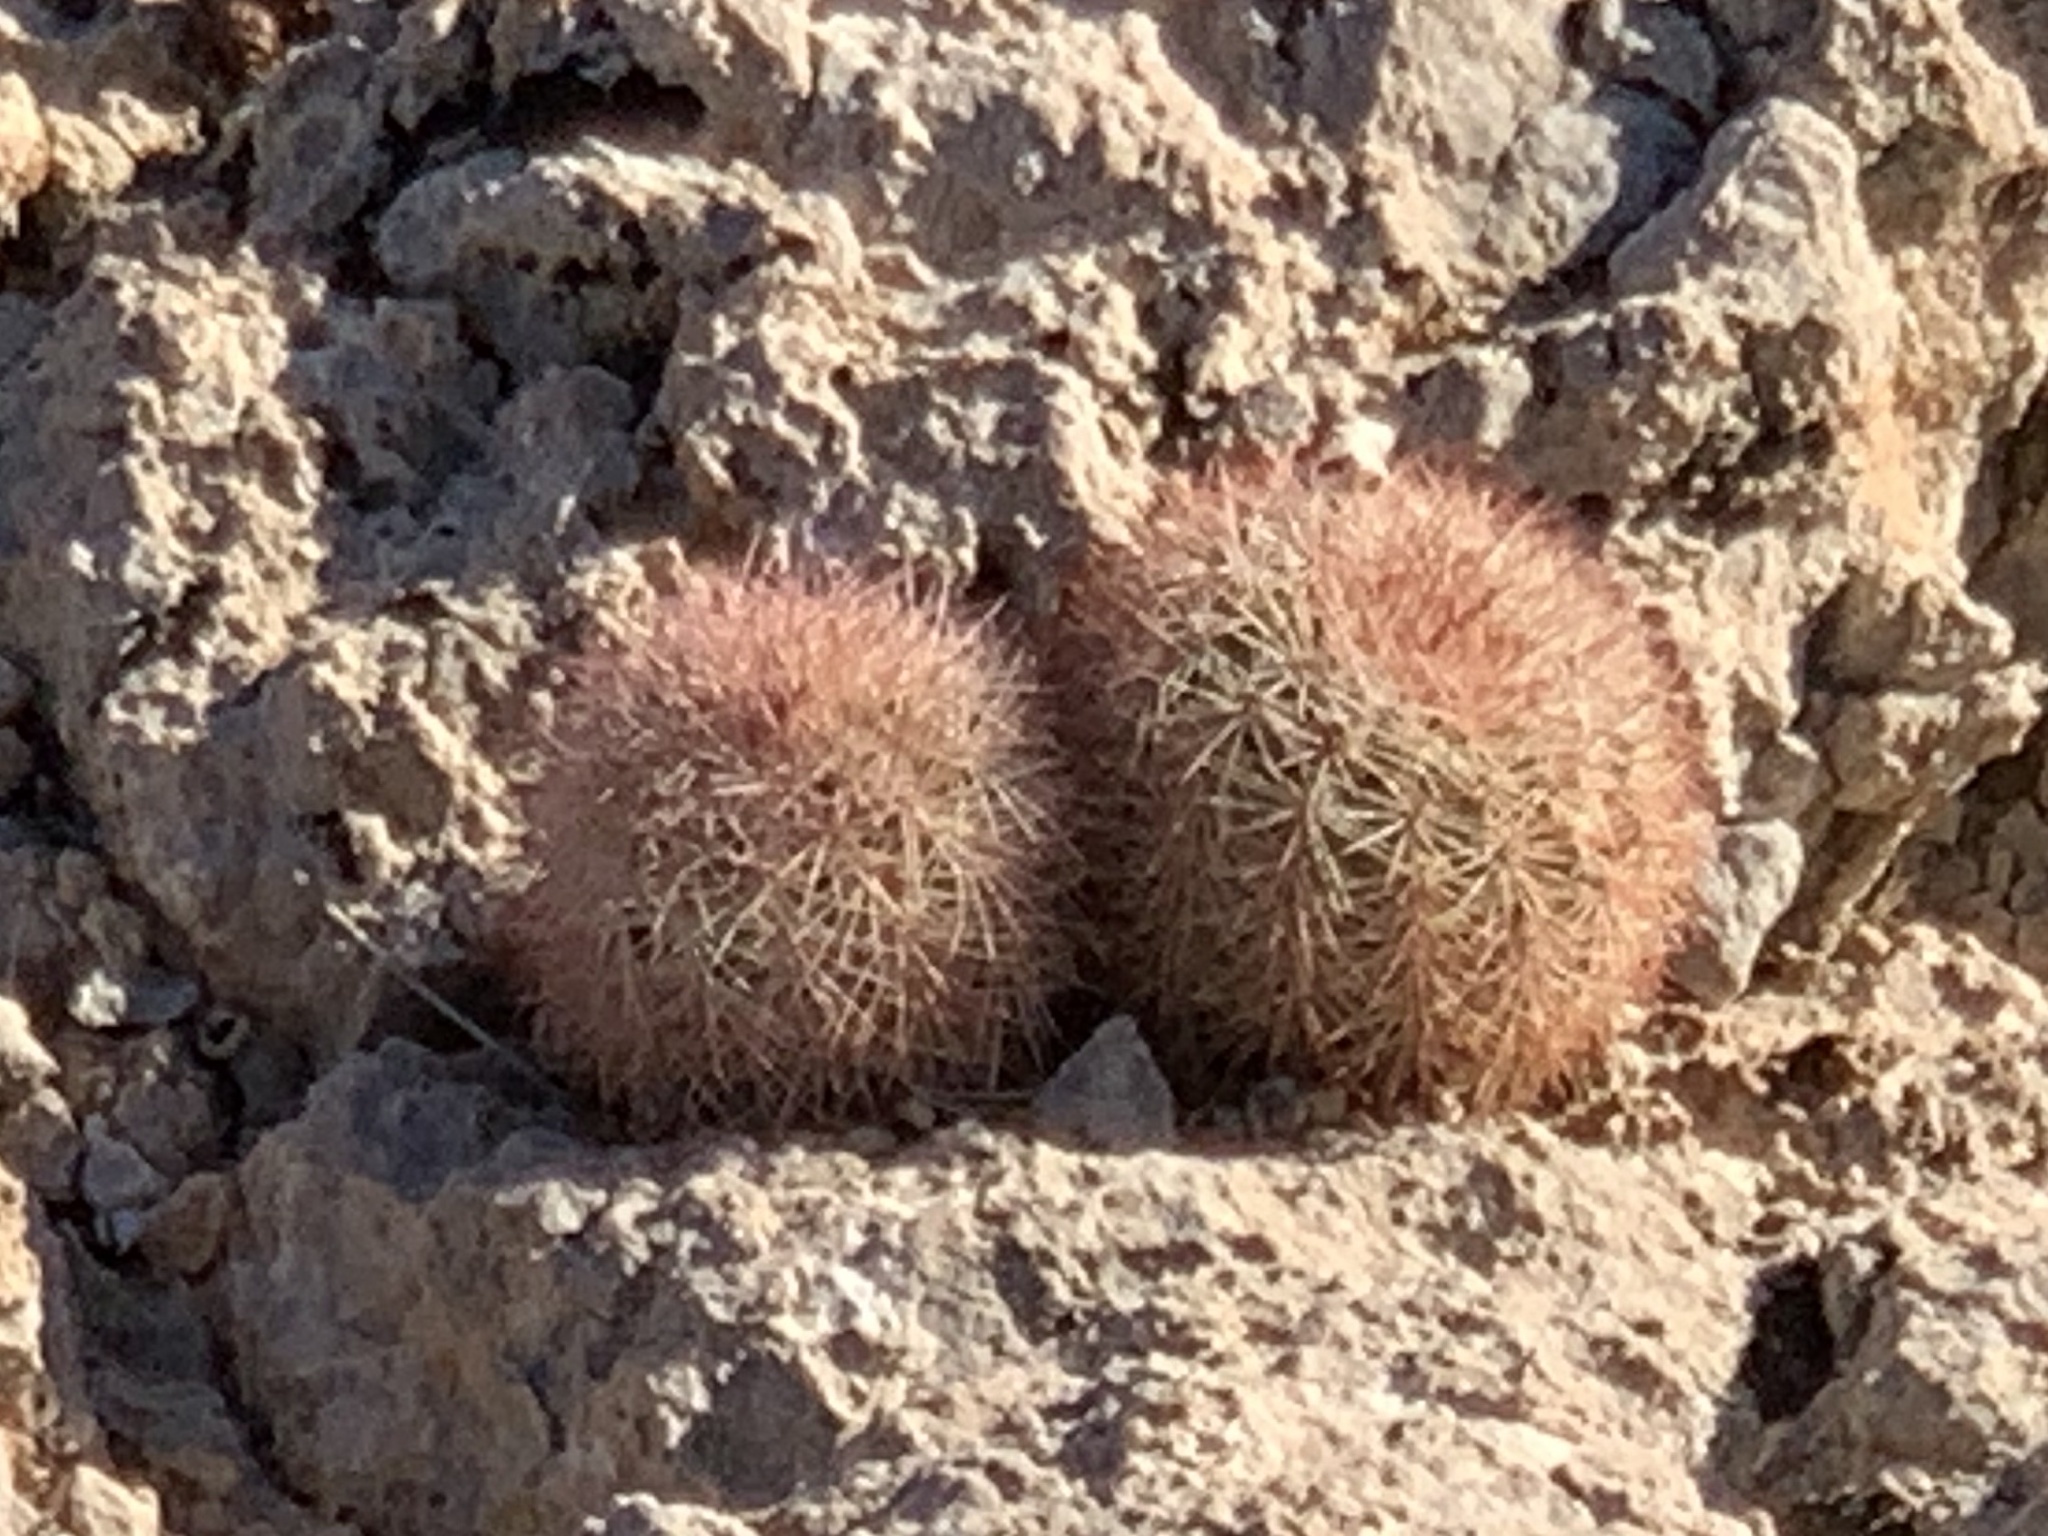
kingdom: Plantae
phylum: Tracheophyta
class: Magnoliopsida
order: Caryophyllales
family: Cactaceae
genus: Echinocereus
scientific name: Echinocereus dasyacanthus
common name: Spiny hedgehog cactus
